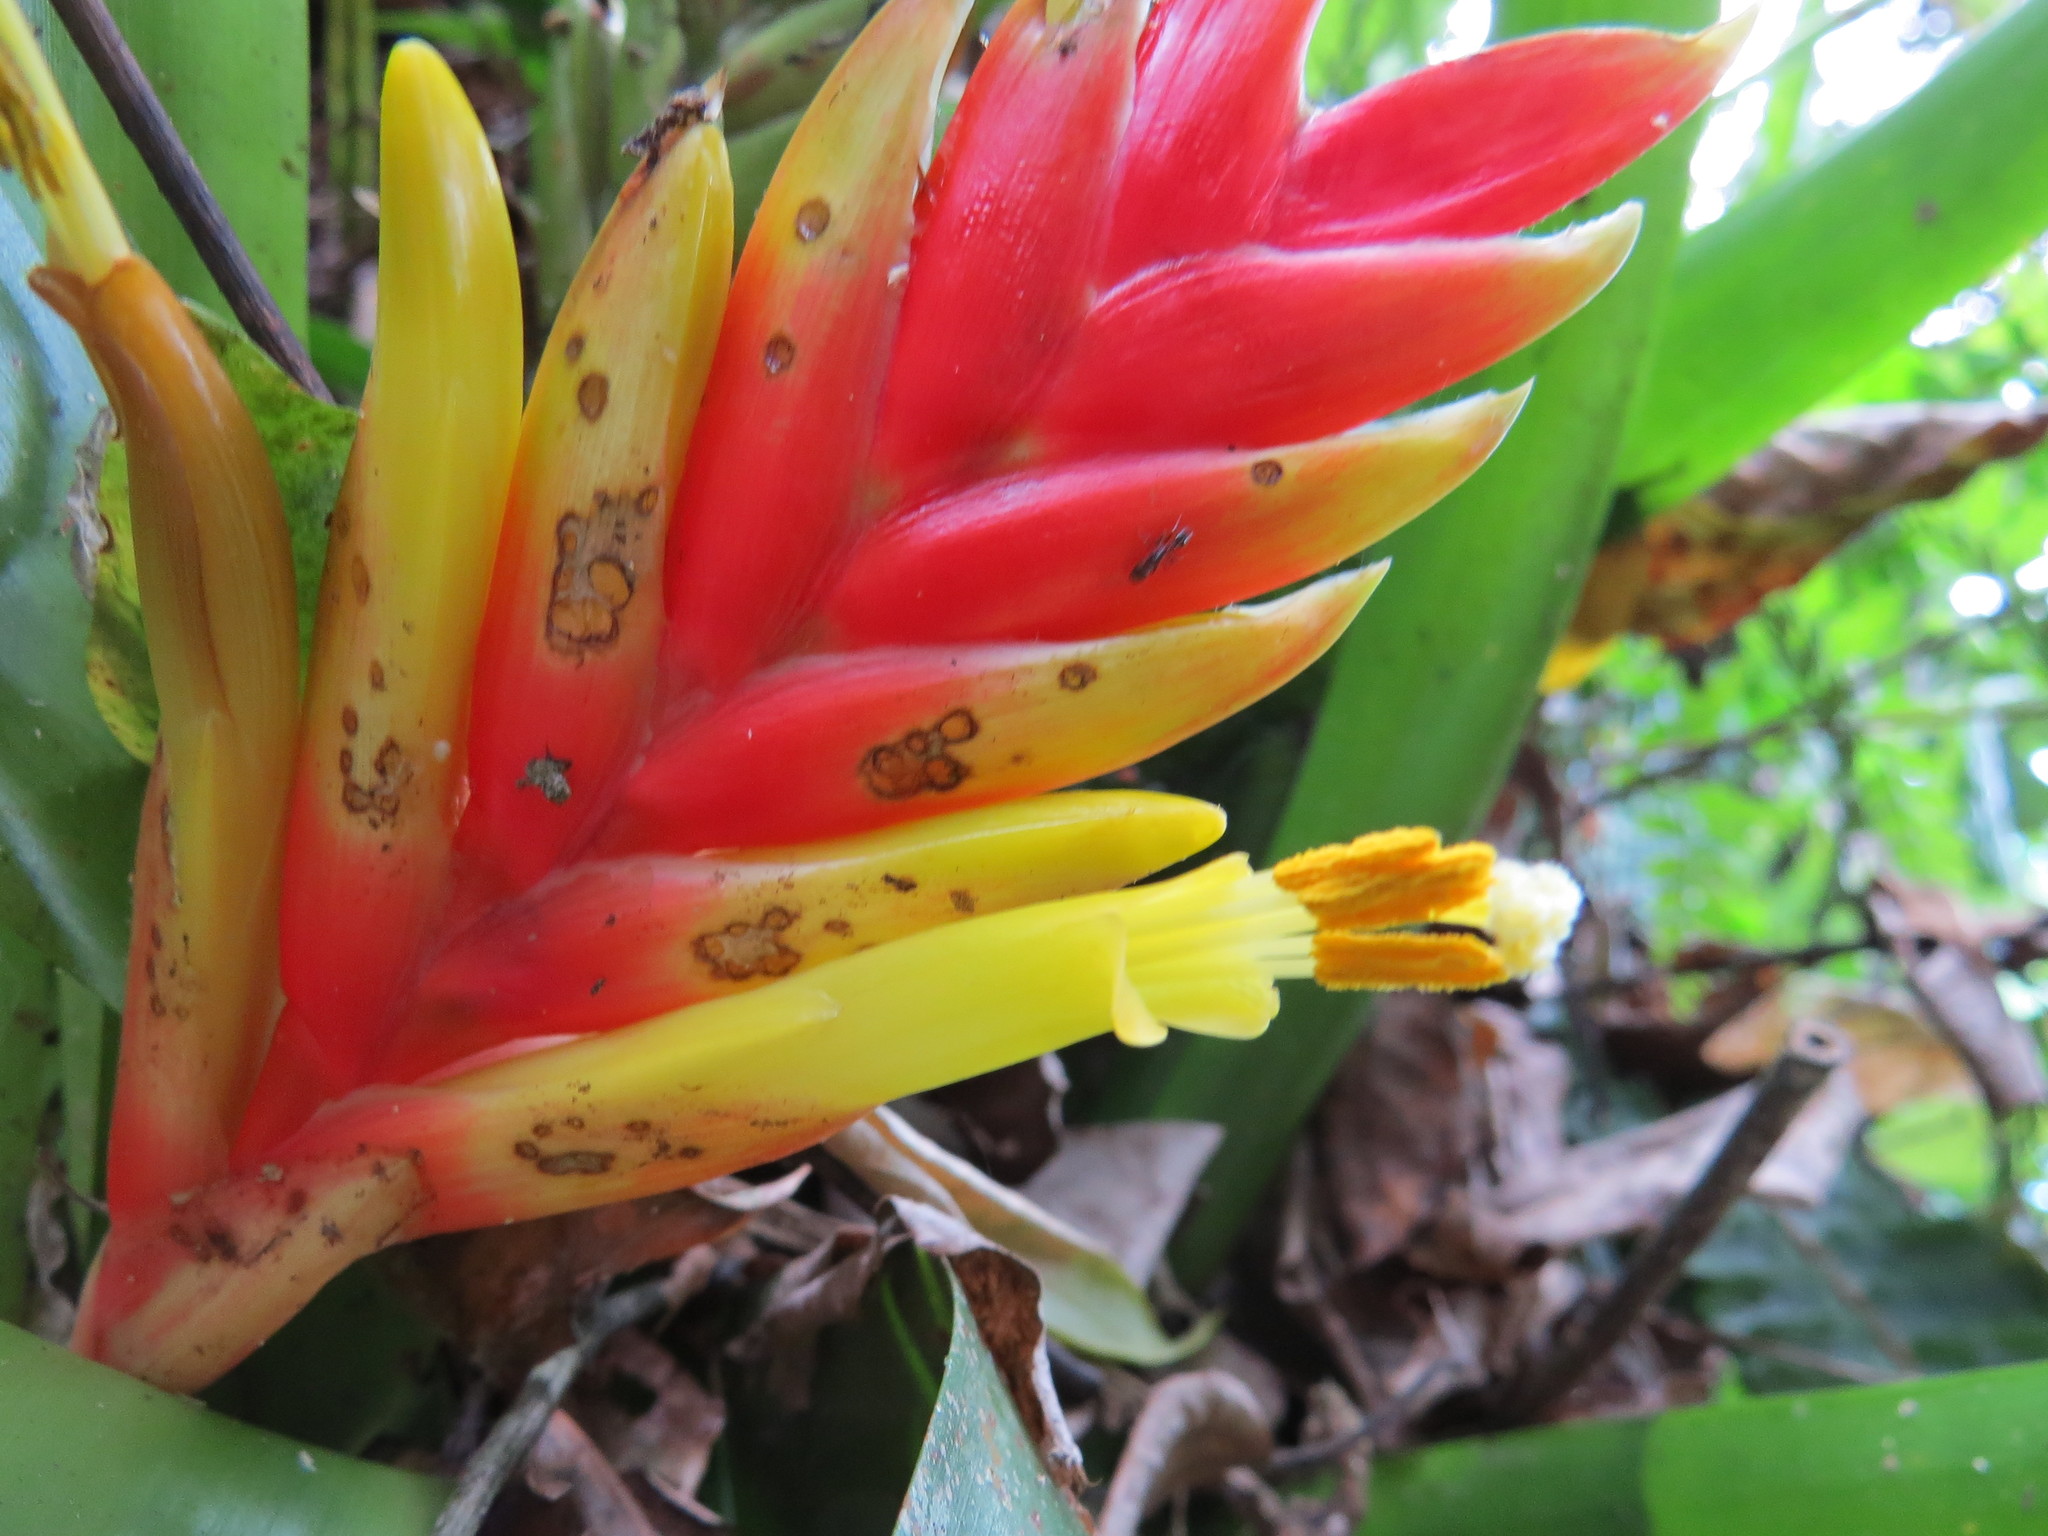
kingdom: Plantae
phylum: Tracheophyta
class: Liliopsida
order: Poales
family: Bromeliaceae
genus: Vriesea
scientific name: Vriesea paraibica
